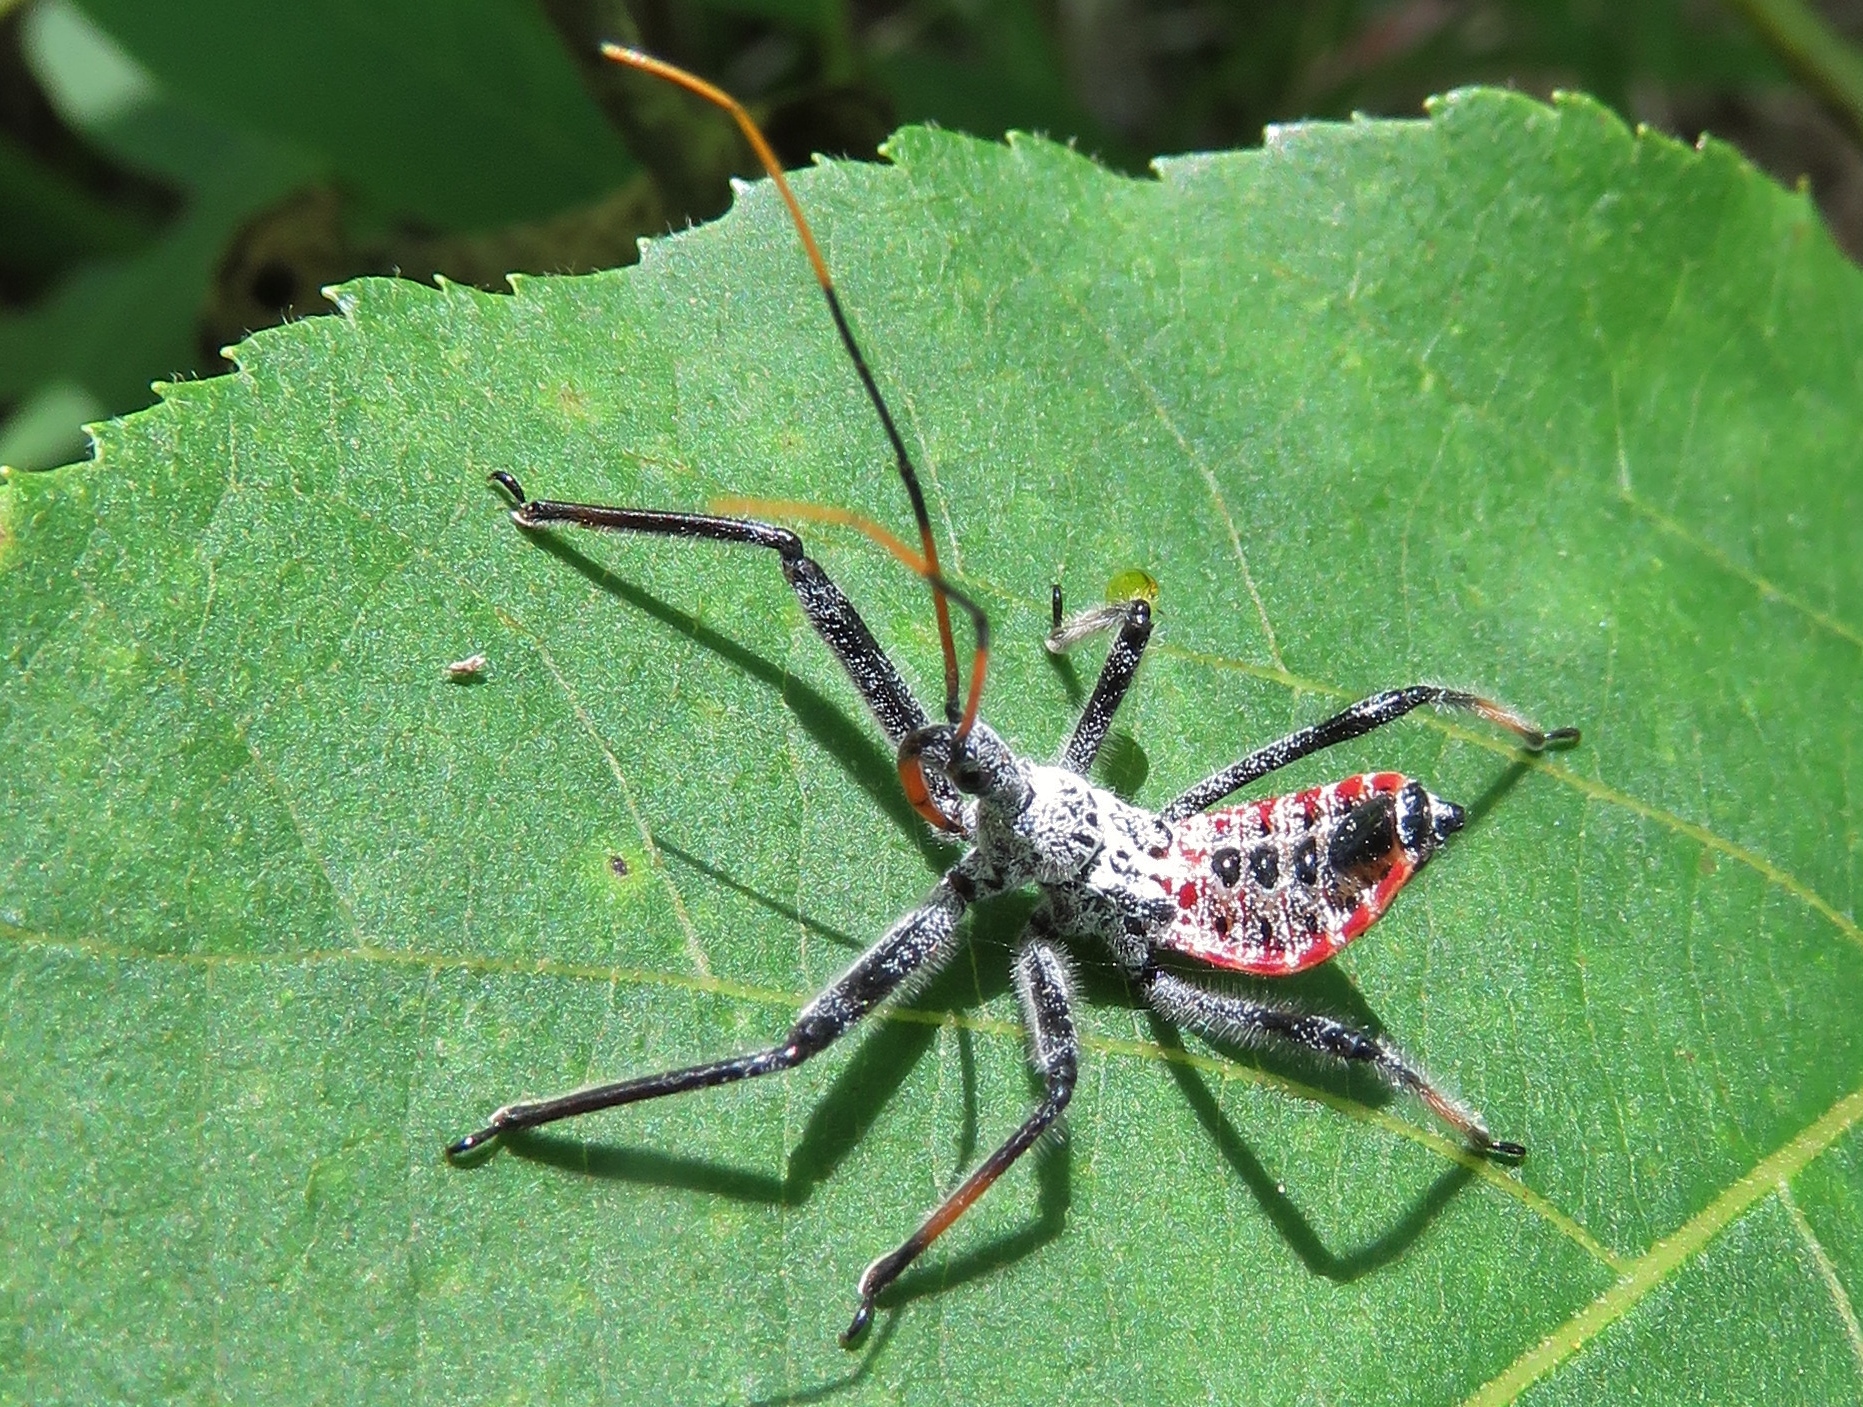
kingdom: Animalia
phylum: Arthropoda
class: Insecta
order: Hemiptera
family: Reduviidae
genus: Arilus
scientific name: Arilus cristatus
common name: North american wheel bug
